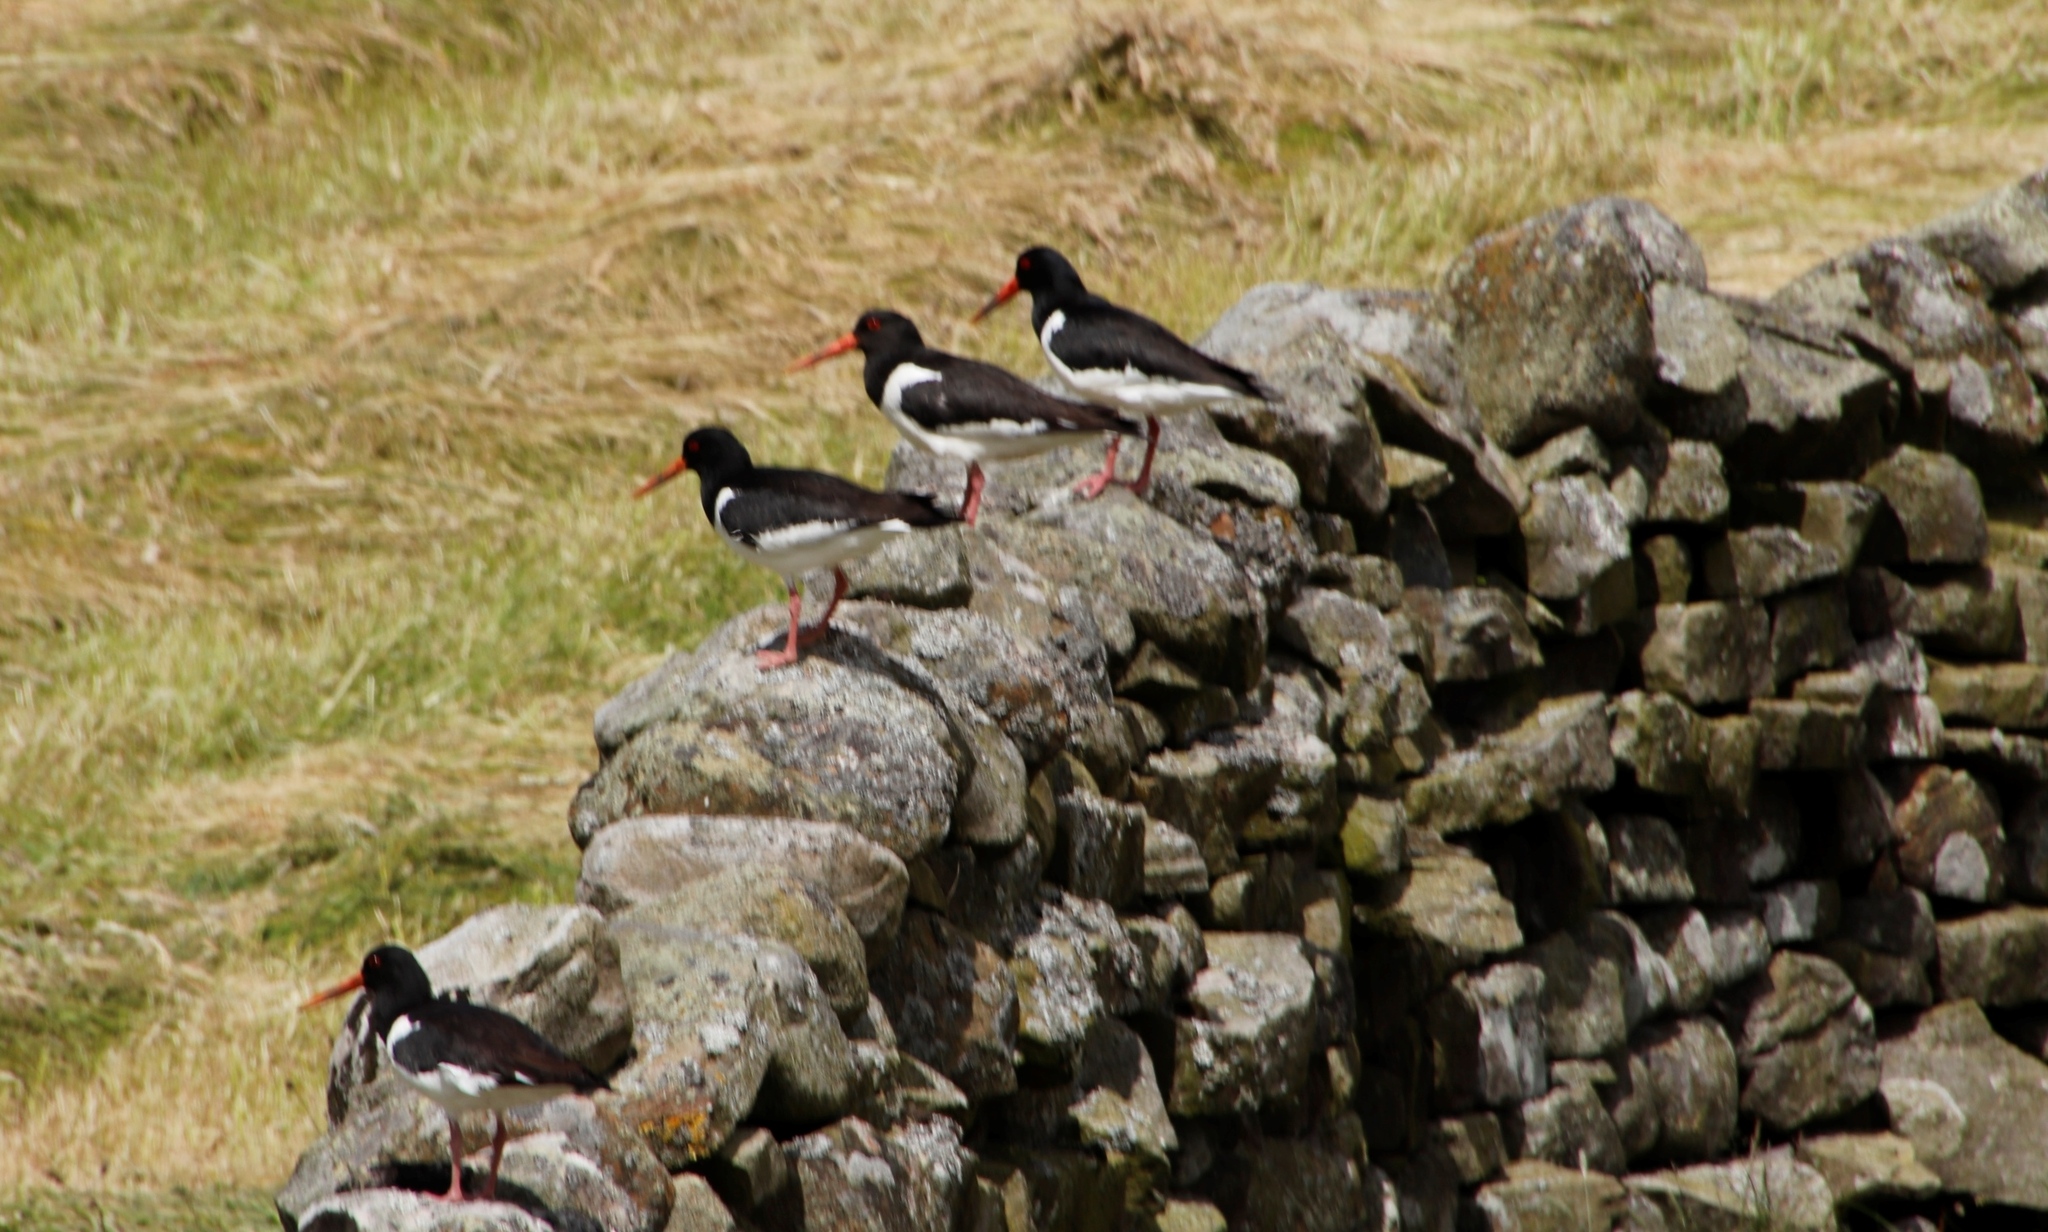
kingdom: Animalia
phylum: Chordata
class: Aves
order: Charadriiformes
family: Haematopodidae
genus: Haematopus
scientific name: Haematopus ostralegus
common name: Eurasian oystercatcher
